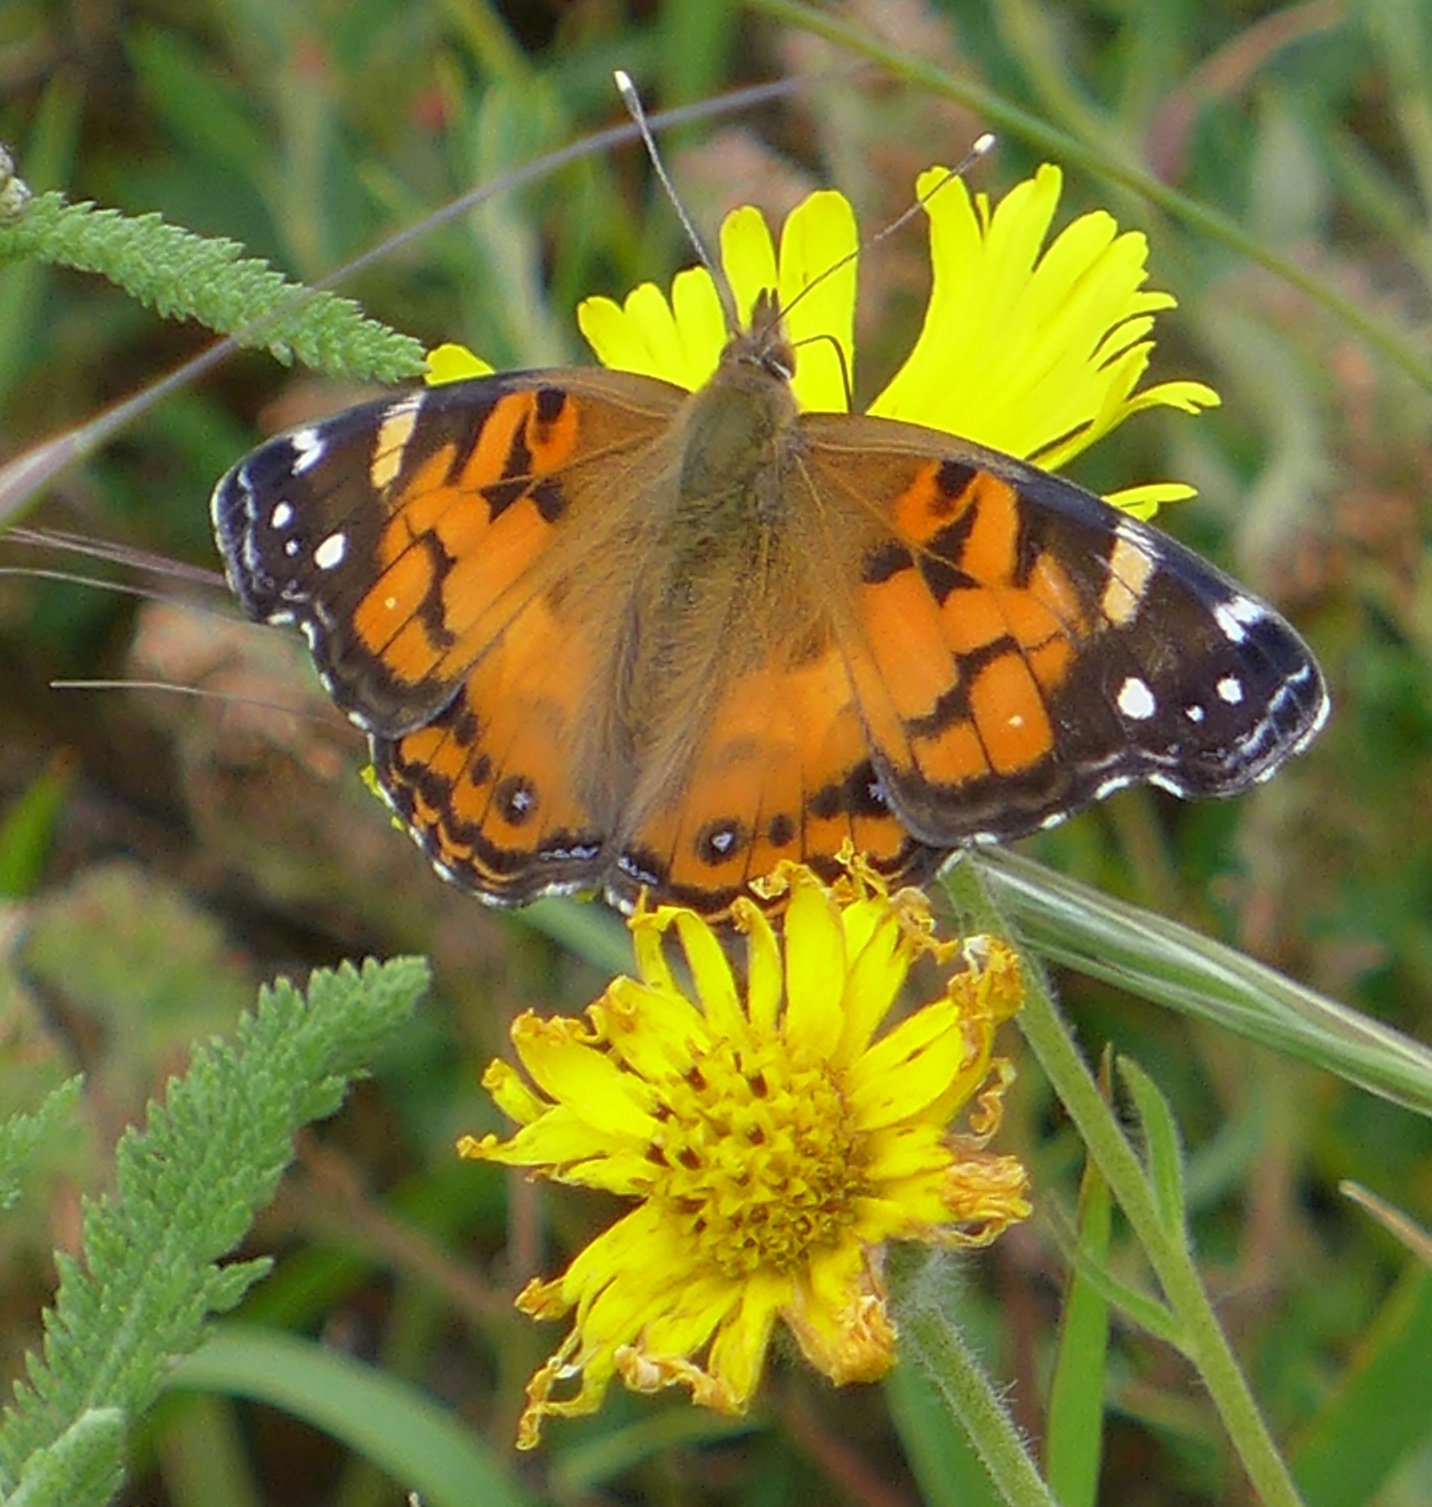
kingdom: Animalia
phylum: Arthropoda
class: Insecta
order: Lepidoptera
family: Nymphalidae
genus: Vanessa
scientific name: Vanessa virginiensis
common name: American lady
